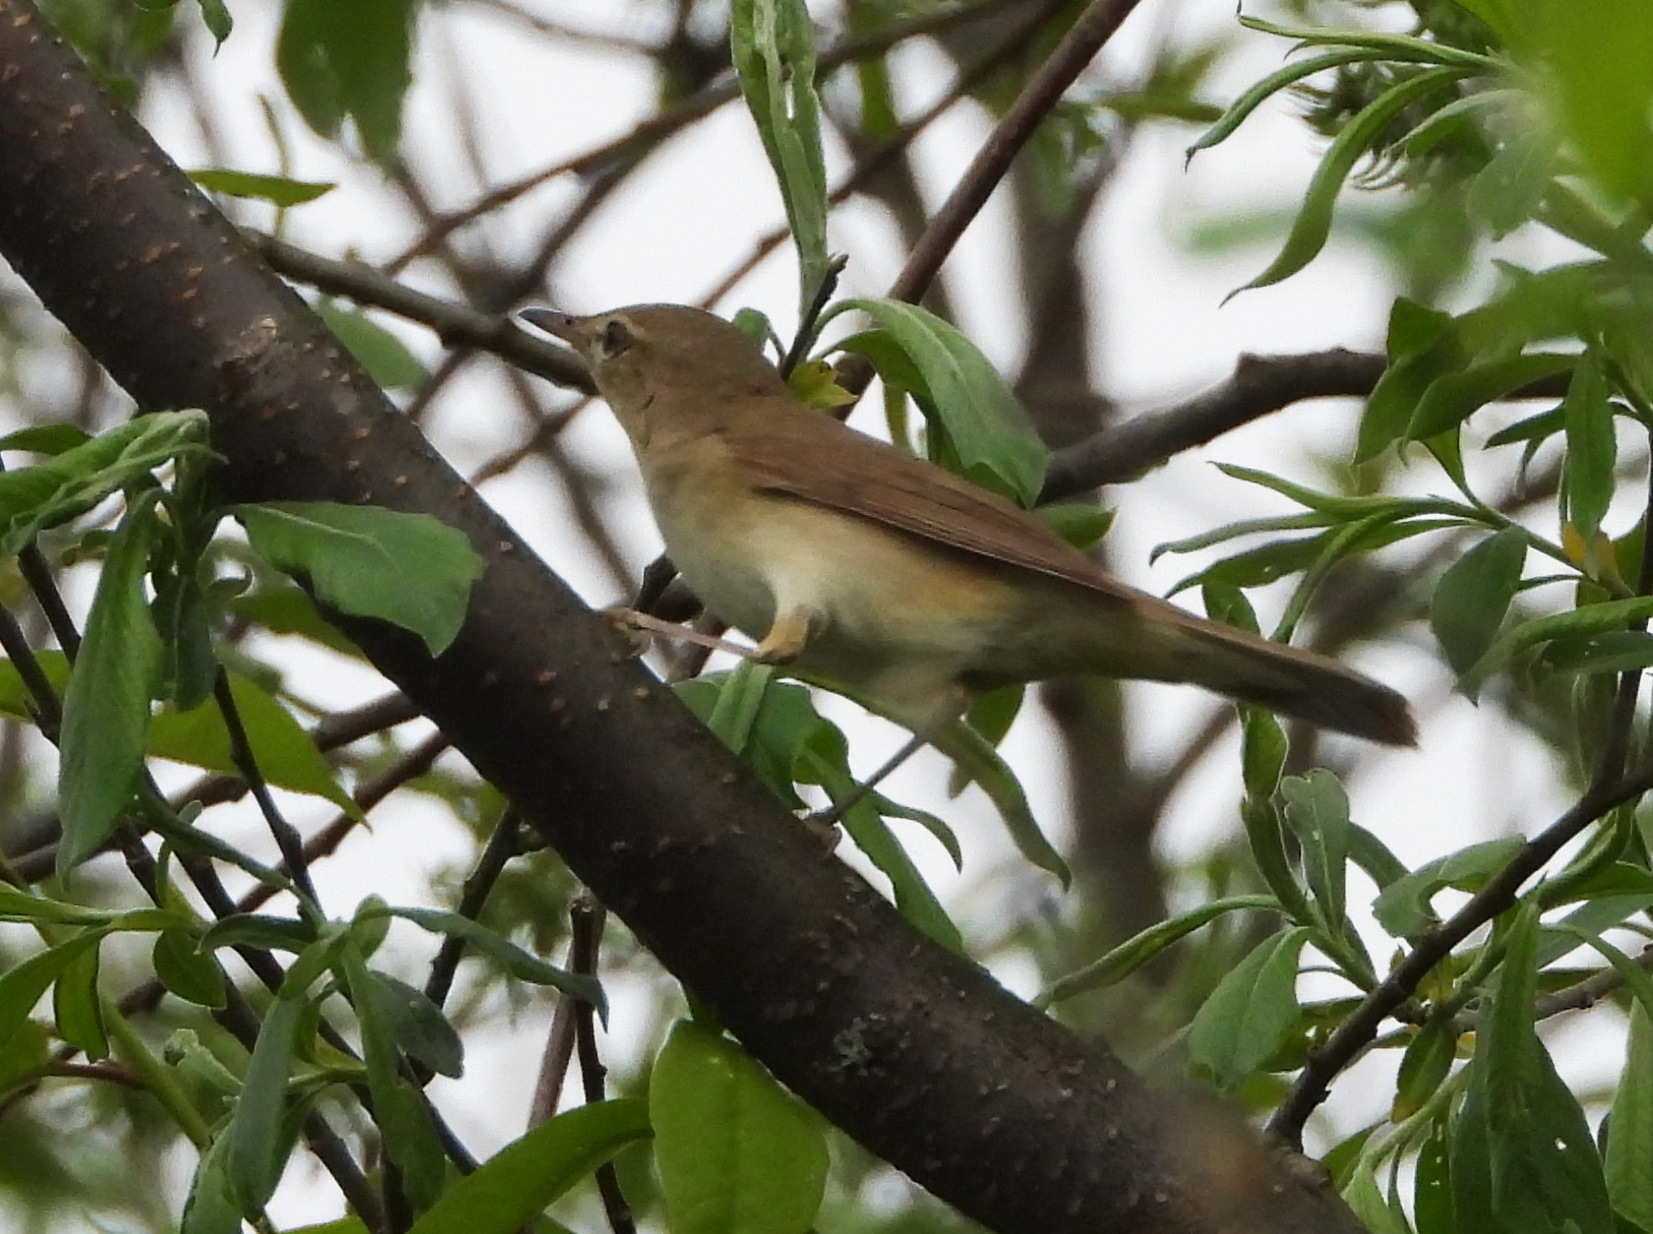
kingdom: Animalia
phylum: Chordata
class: Aves
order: Passeriformes
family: Acrocephalidae
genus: Acrocephalus
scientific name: Acrocephalus dumetorum
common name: Blyth's reed warbler
